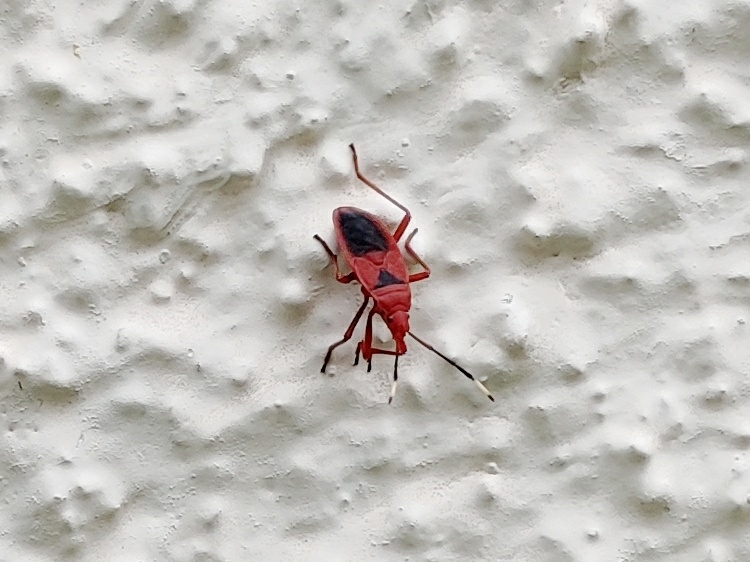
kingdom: Animalia
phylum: Arthropoda
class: Insecta
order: Hemiptera
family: Pyrrhocoridae
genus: Probergrothius
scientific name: Probergrothius
